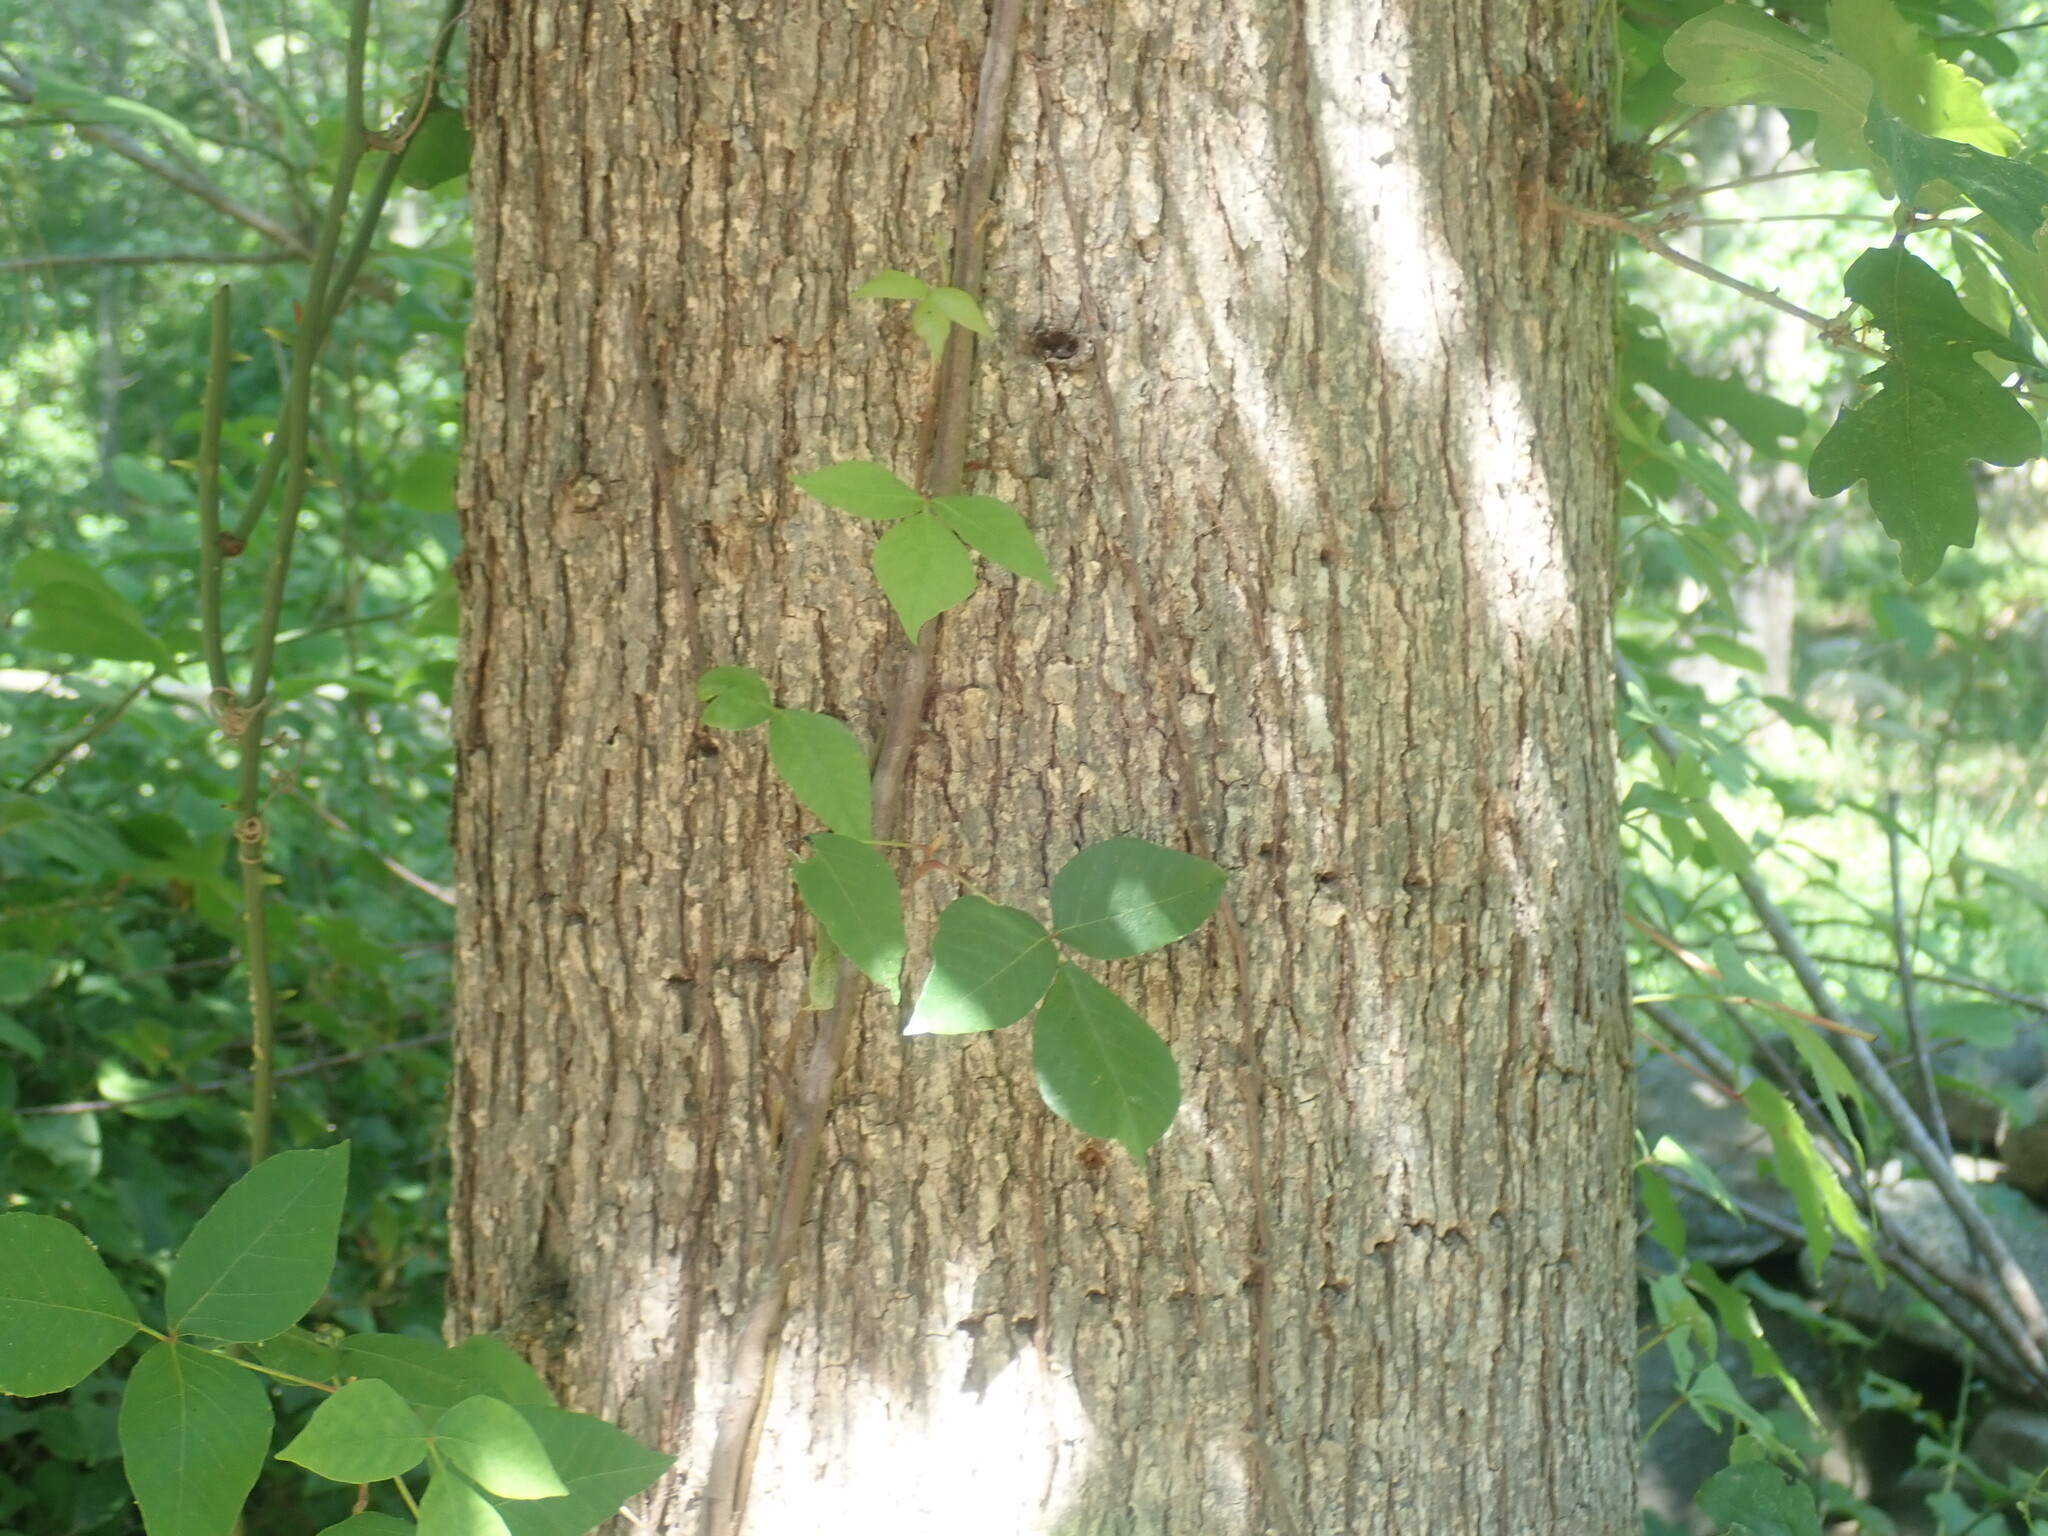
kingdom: Plantae
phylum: Tracheophyta
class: Magnoliopsida
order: Sapindales
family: Anacardiaceae
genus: Toxicodendron
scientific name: Toxicodendron radicans
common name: Poison ivy
